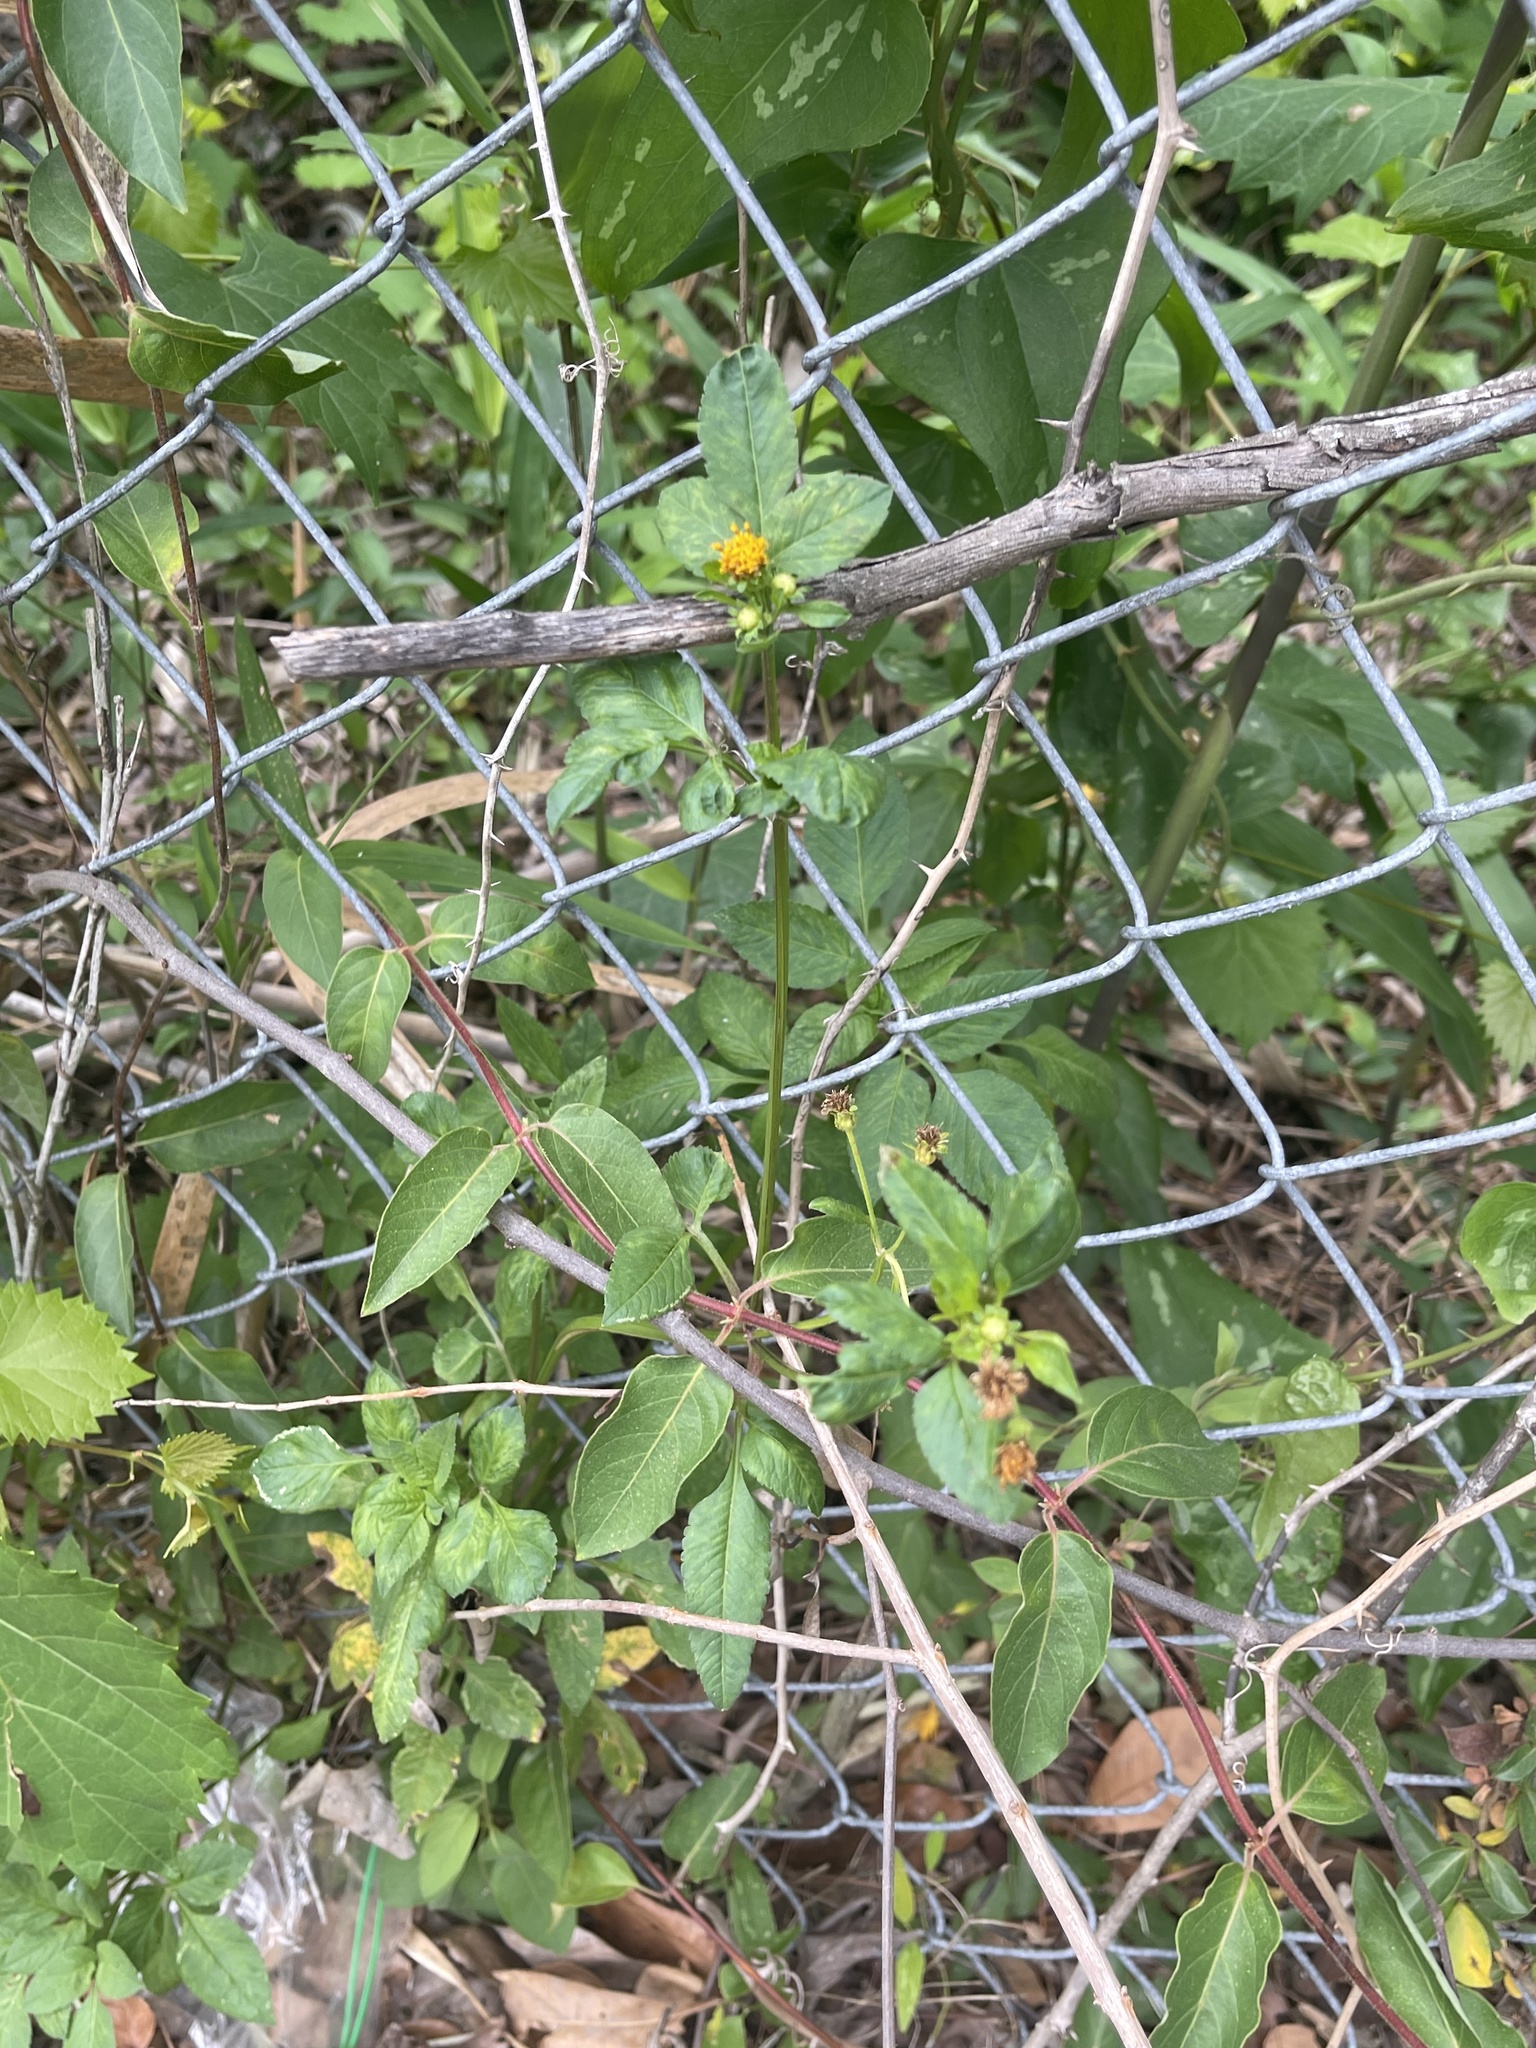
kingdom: Plantae
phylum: Tracheophyta
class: Magnoliopsida
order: Asterales
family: Asteraceae
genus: Bidens
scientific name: Bidens alba
